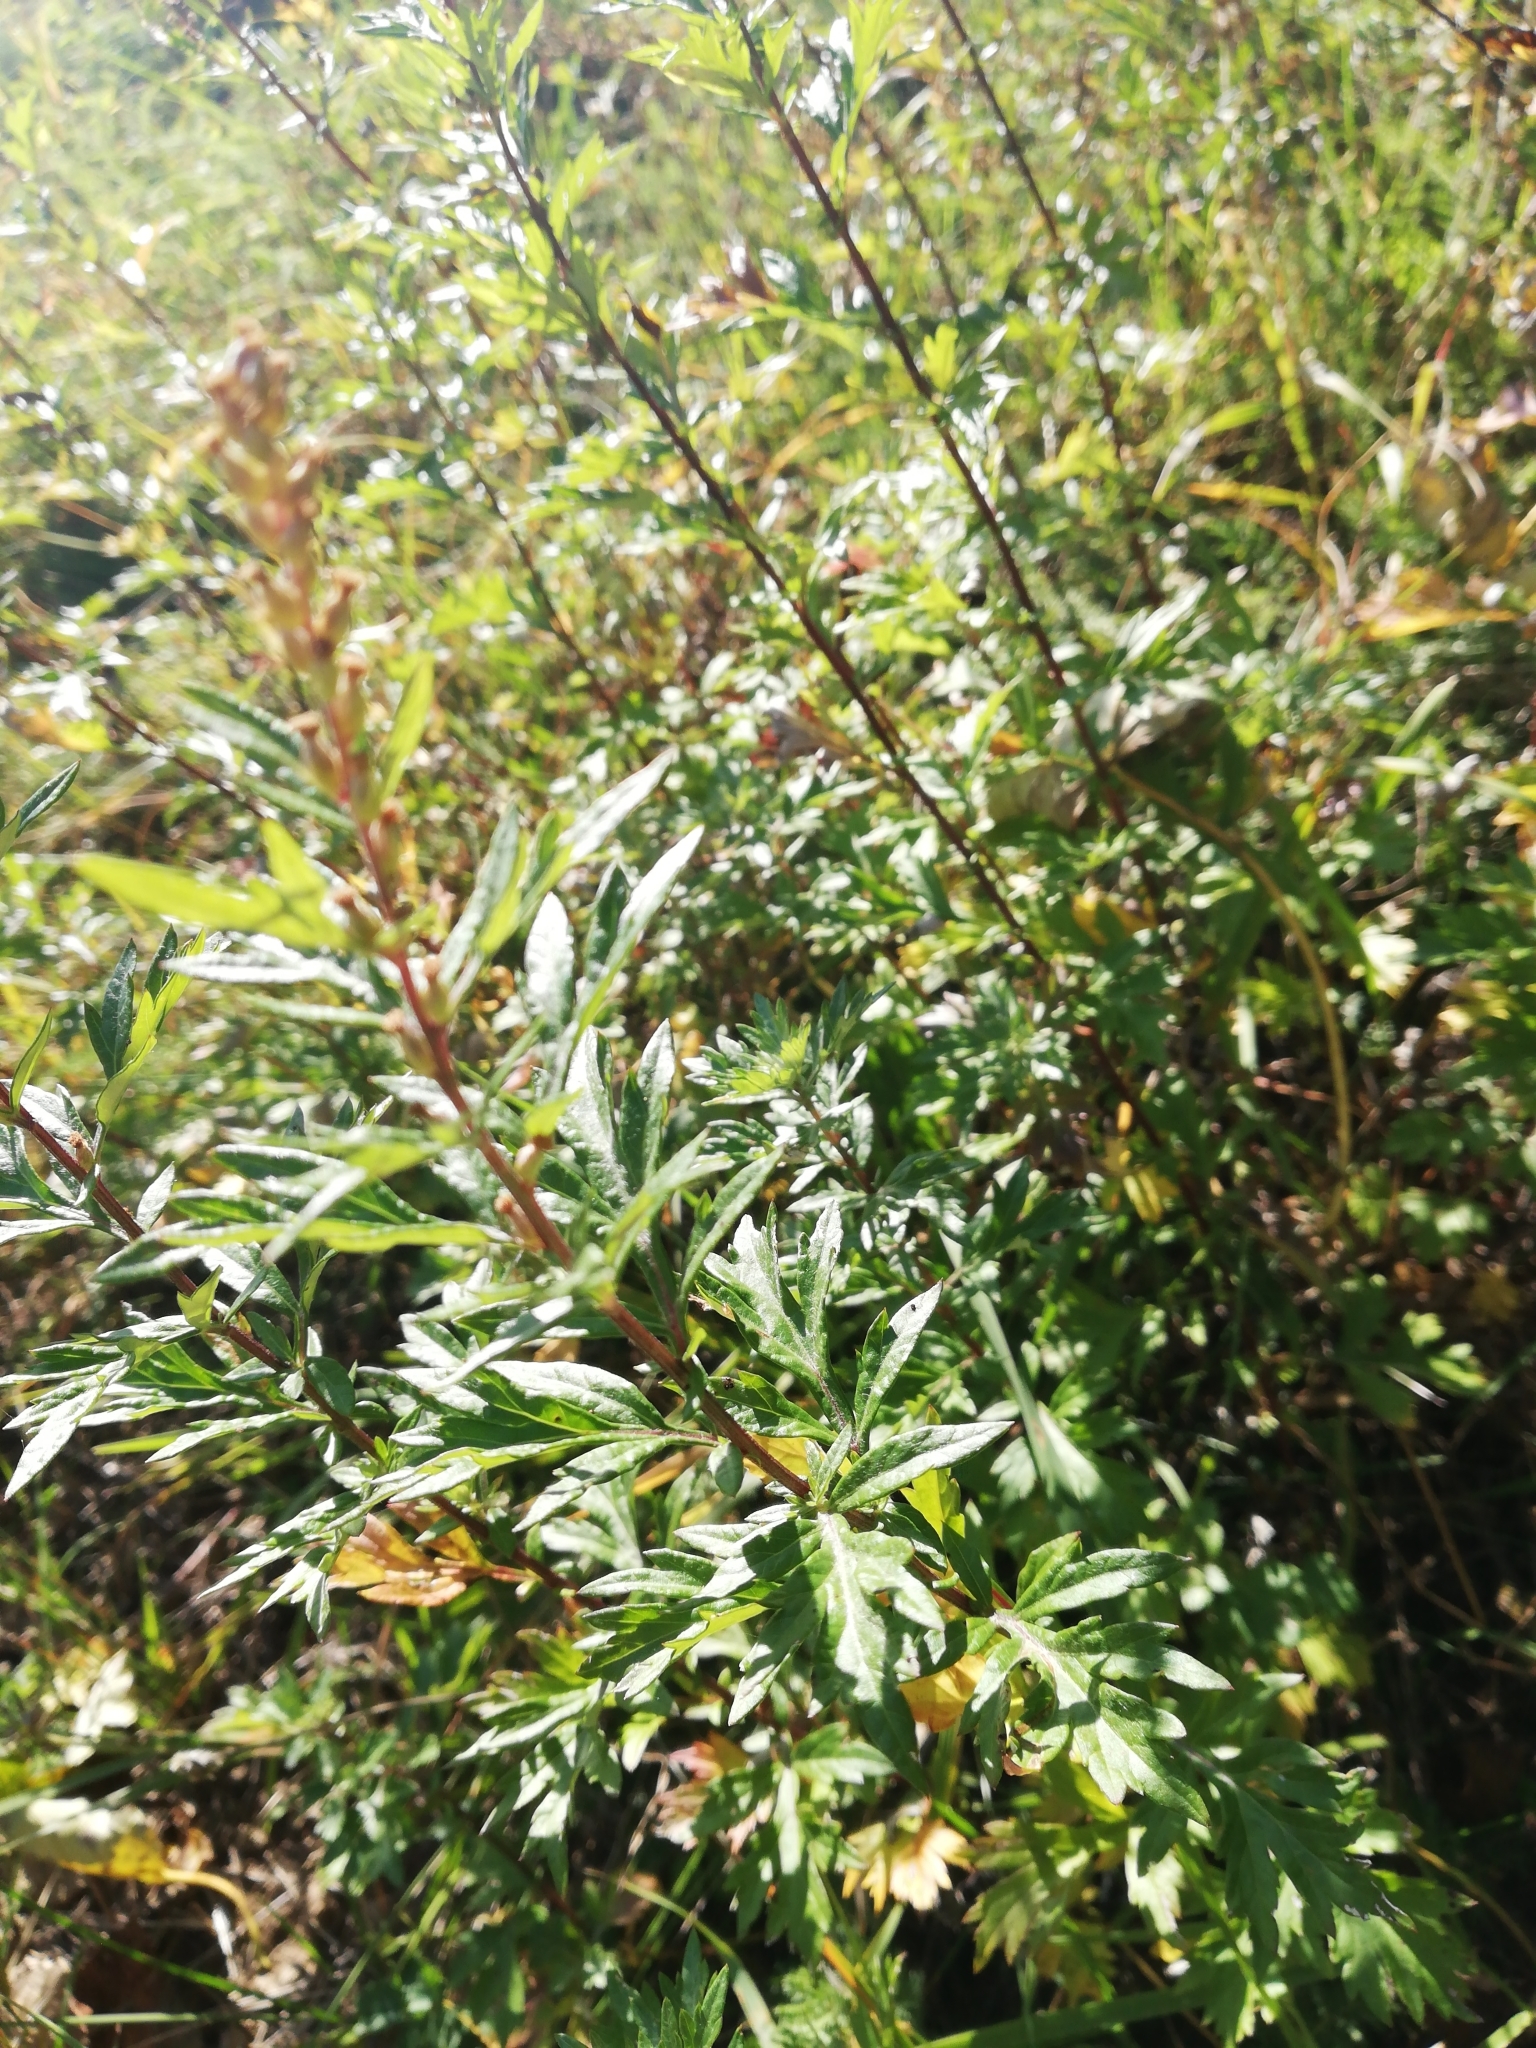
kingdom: Plantae
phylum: Tracheophyta
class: Magnoliopsida
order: Asterales
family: Asteraceae
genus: Artemisia
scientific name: Artemisia vulgaris
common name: Mugwort
